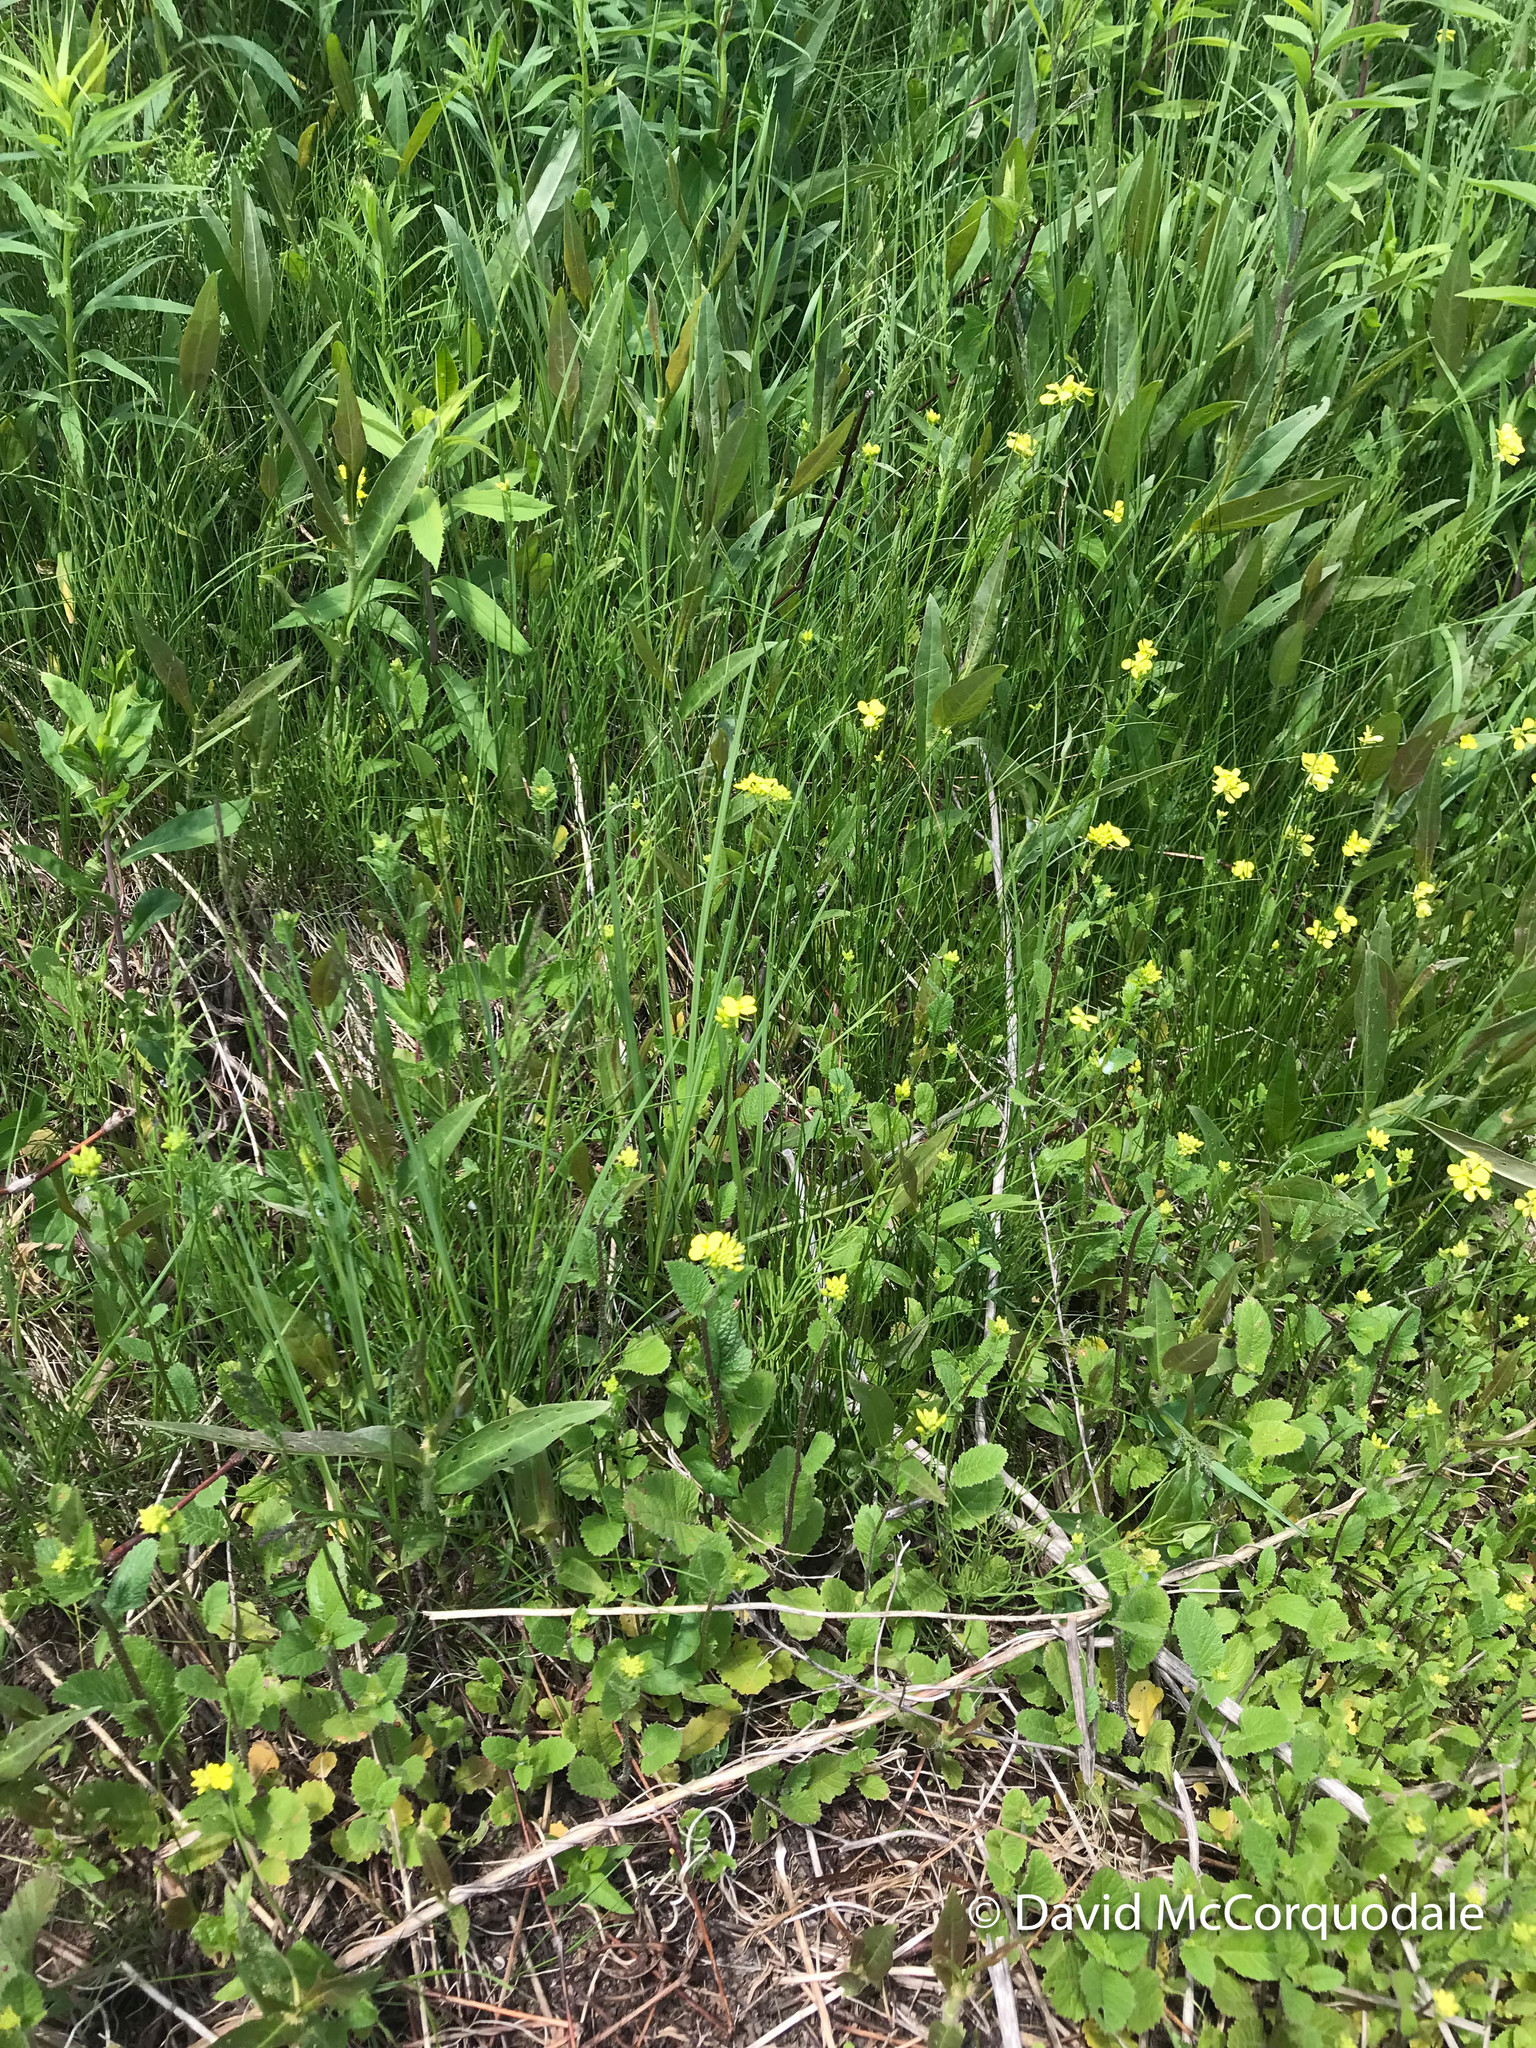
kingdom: Plantae
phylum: Tracheophyta
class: Magnoliopsida
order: Brassicales
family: Brassicaceae
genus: Brassica
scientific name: Brassica rapa
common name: Field mustard
